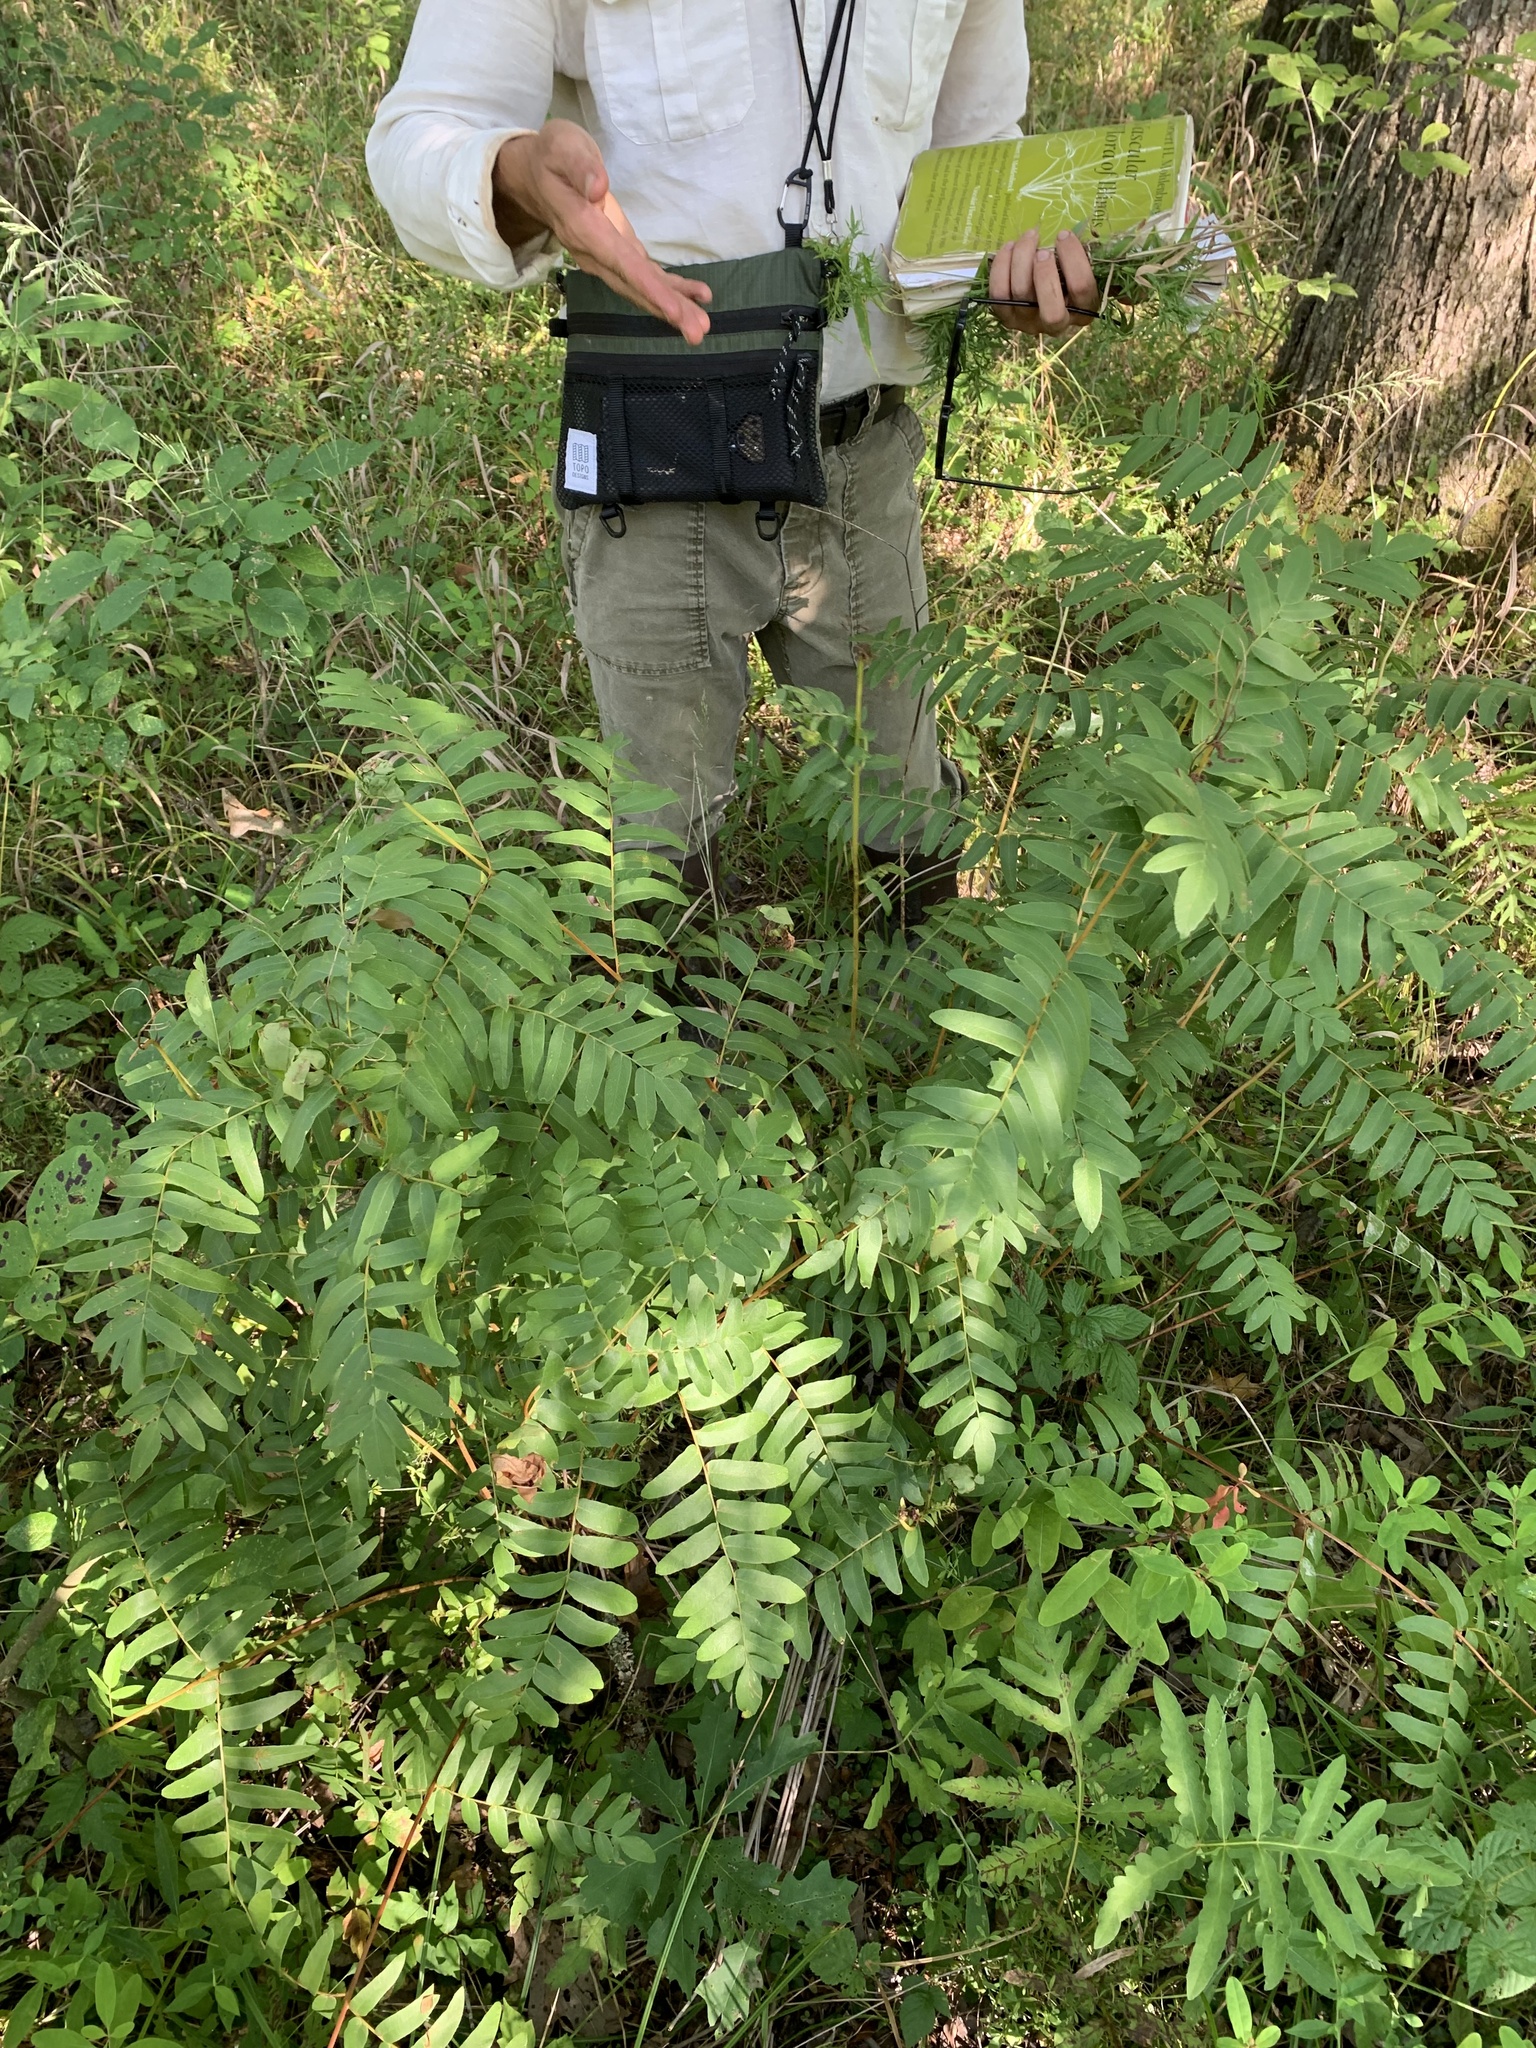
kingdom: Plantae
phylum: Tracheophyta
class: Polypodiopsida
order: Osmundales
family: Osmundaceae
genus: Osmunda
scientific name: Osmunda spectabilis
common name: American royal fern
